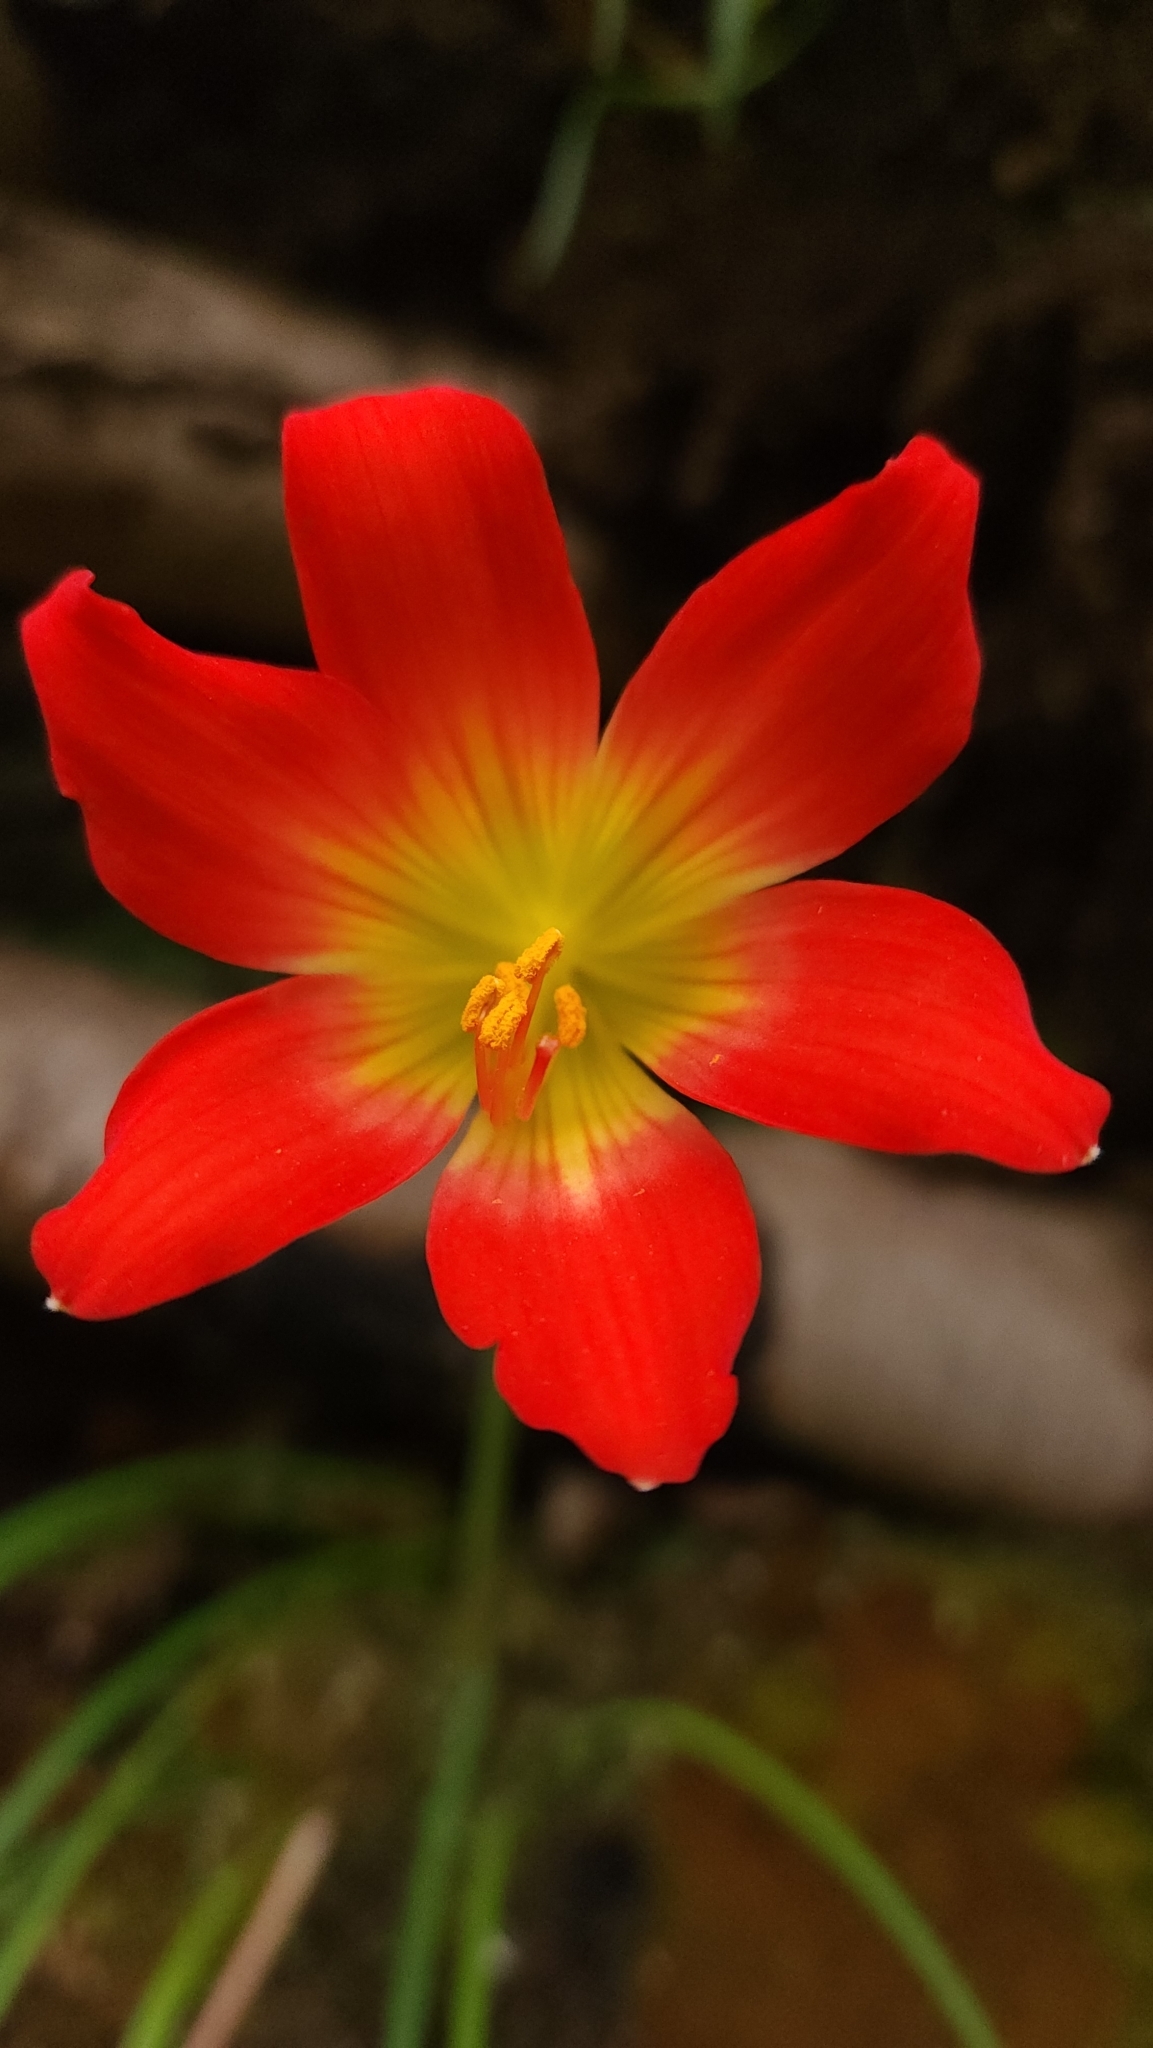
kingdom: Plantae
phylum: Tracheophyta
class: Liliopsida
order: Asparagales
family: Amaryllidaceae
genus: Phycella
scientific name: Phycella chilensis
